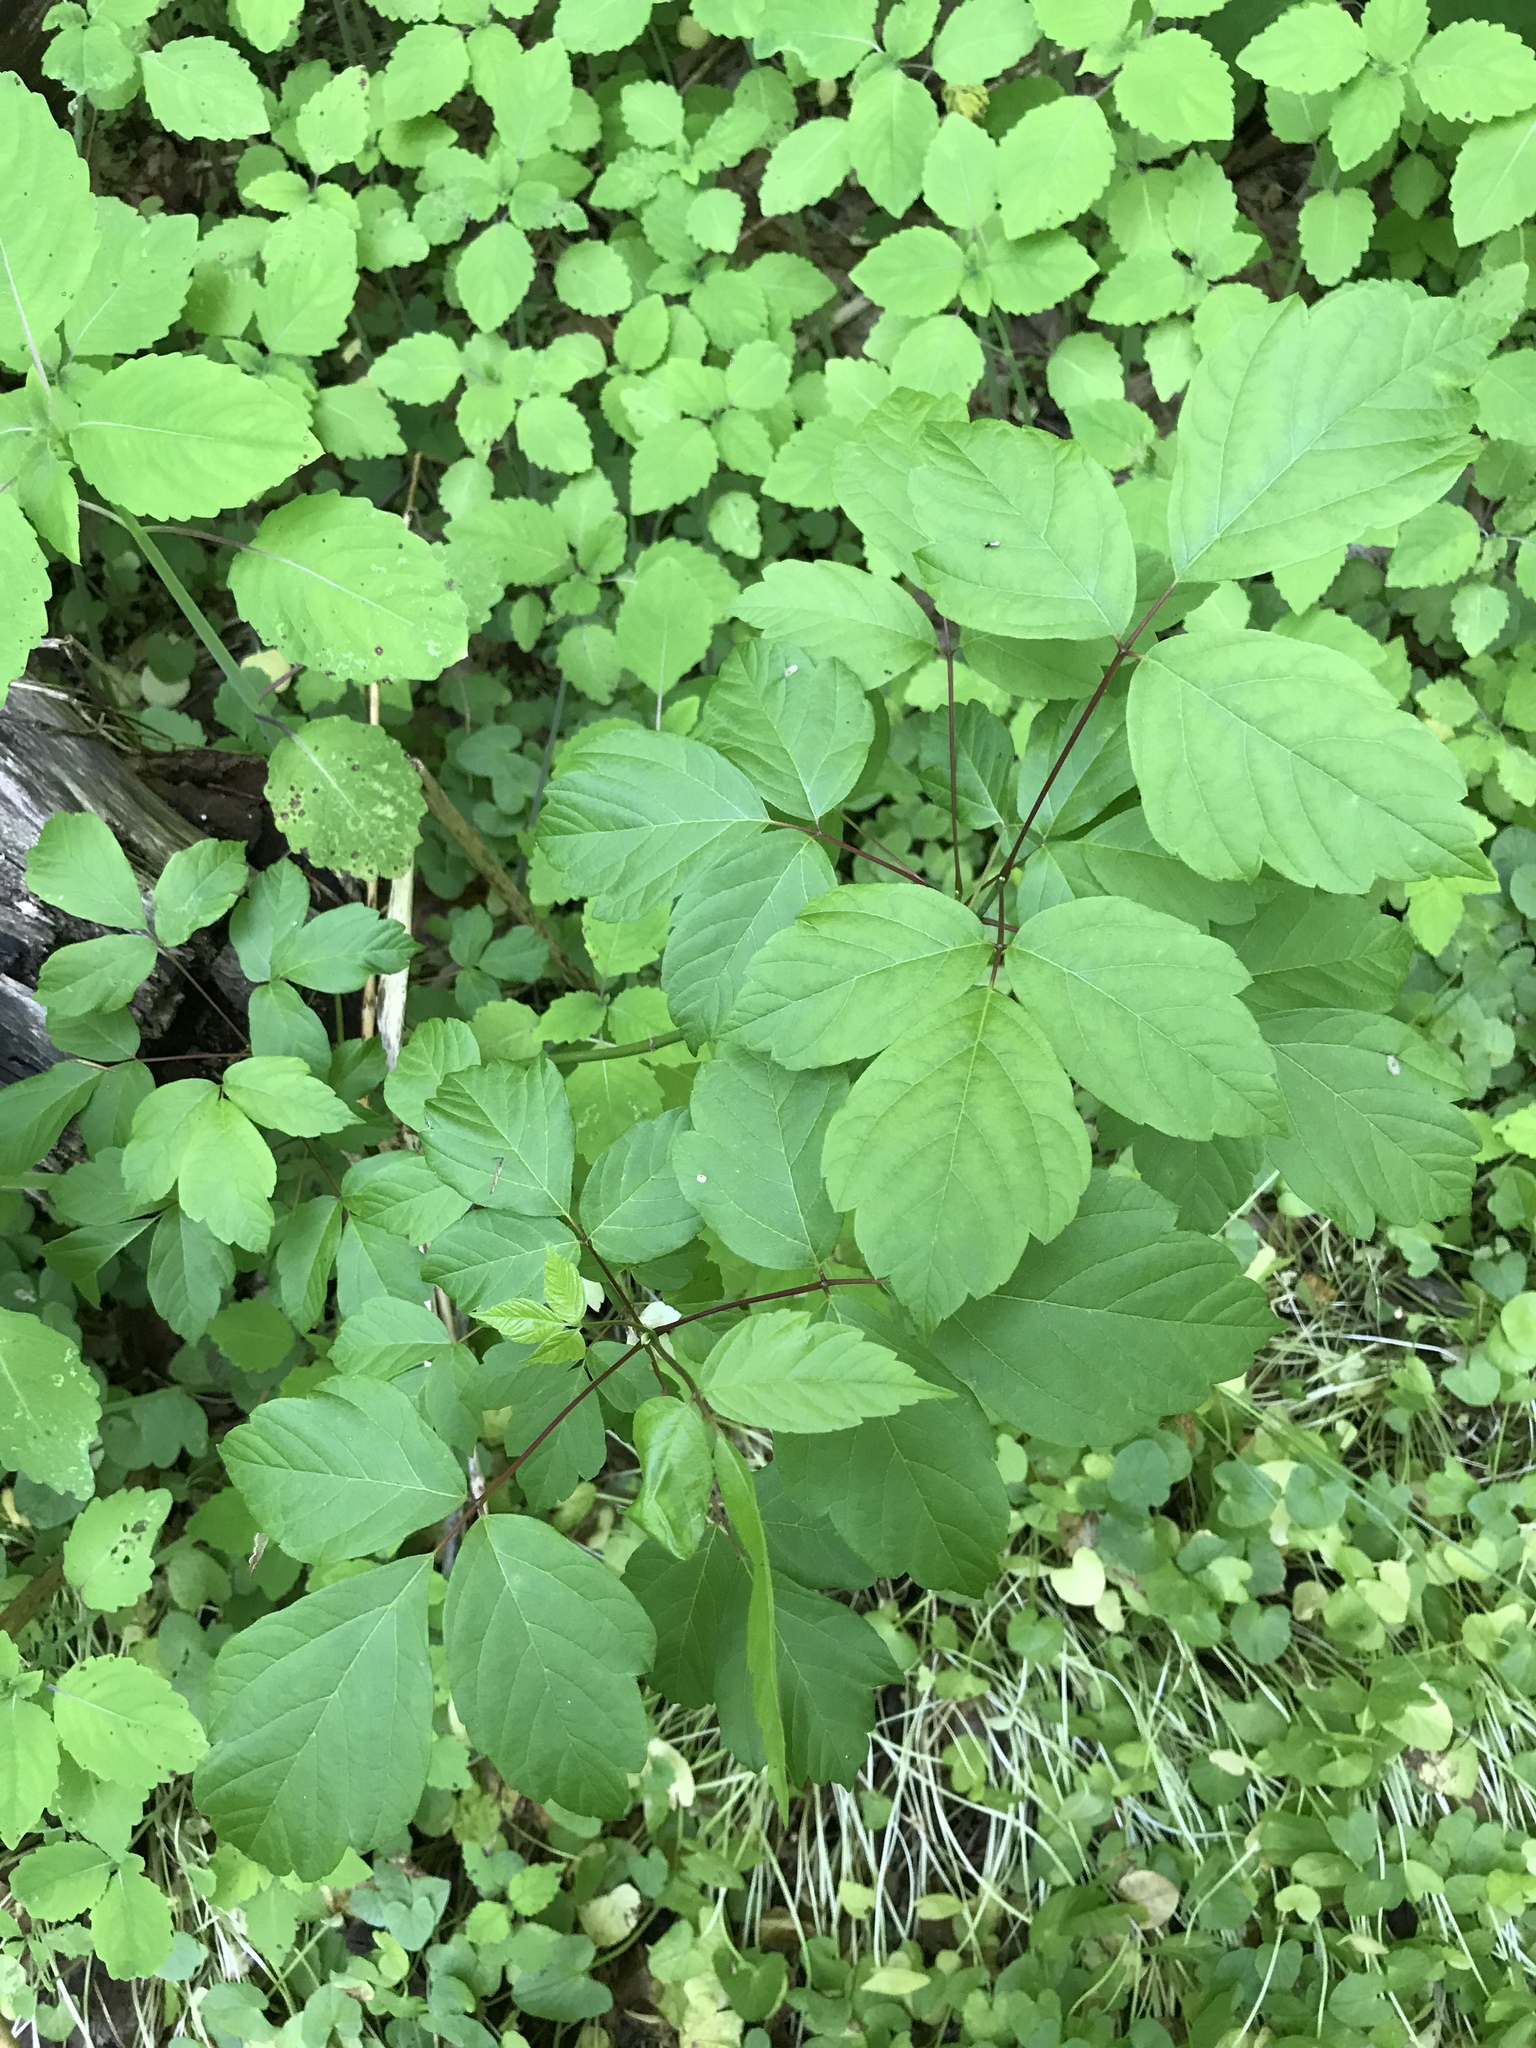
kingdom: Plantae
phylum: Tracheophyta
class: Magnoliopsida
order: Sapindales
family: Sapindaceae
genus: Acer
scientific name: Acer negundo
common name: Ashleaf maple
